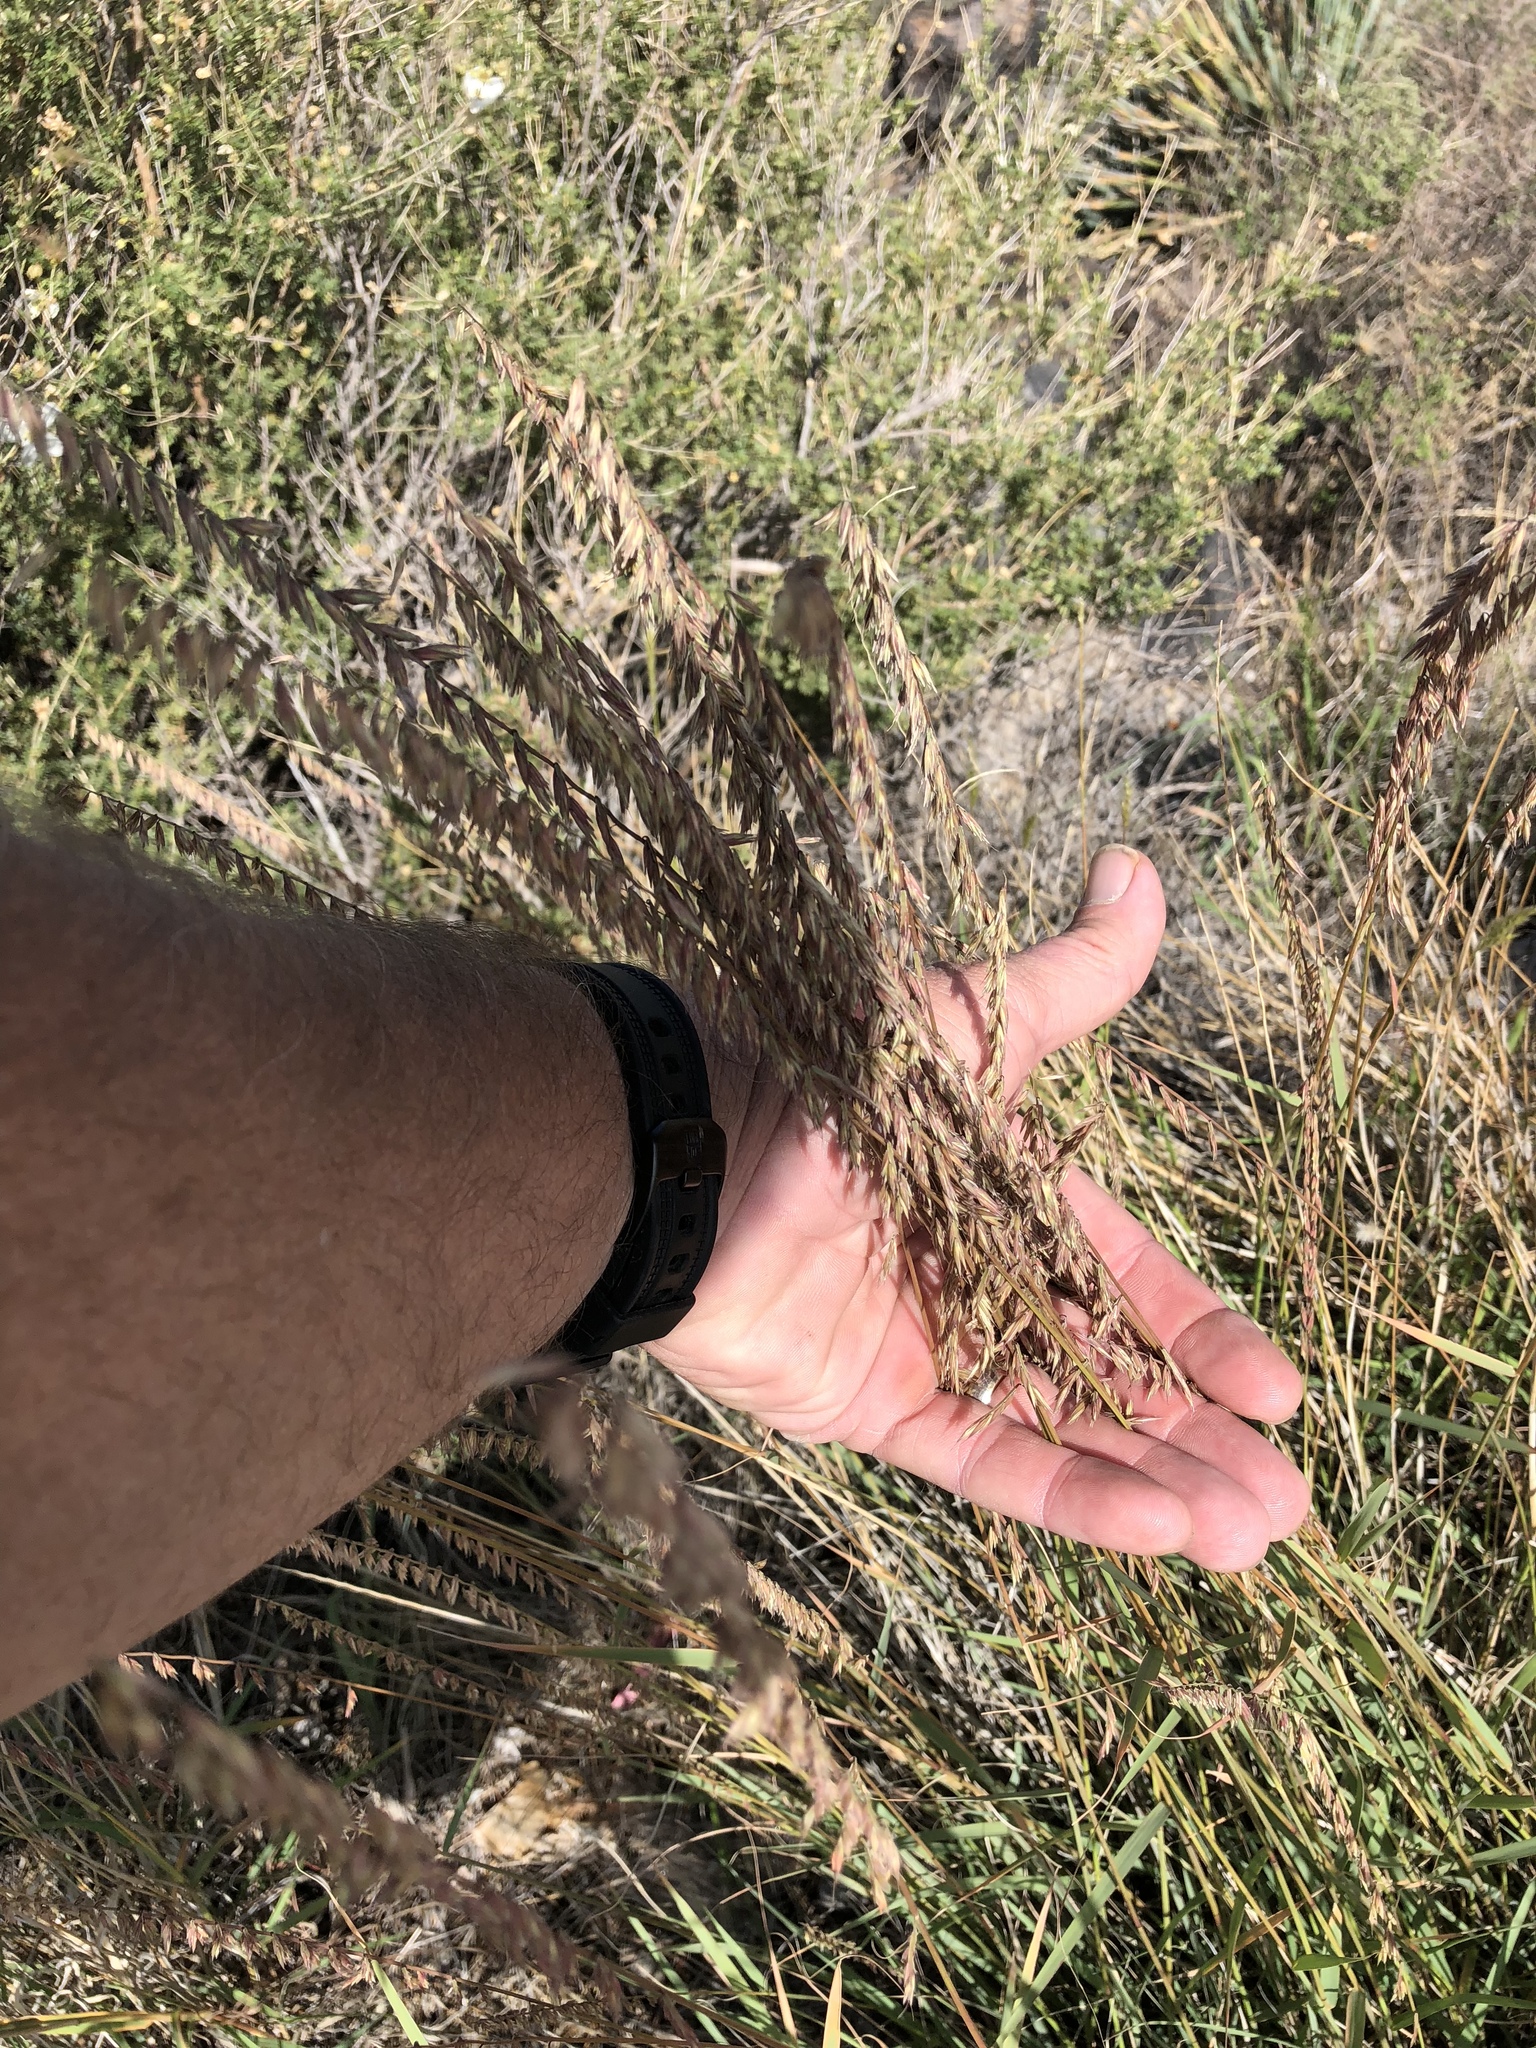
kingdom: Plantae
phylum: Tracheophyta
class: Liliopsida
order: Poales
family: Poaceae
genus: Bouteloua
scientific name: Bouteloua curtipendula
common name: Side-oats grama
